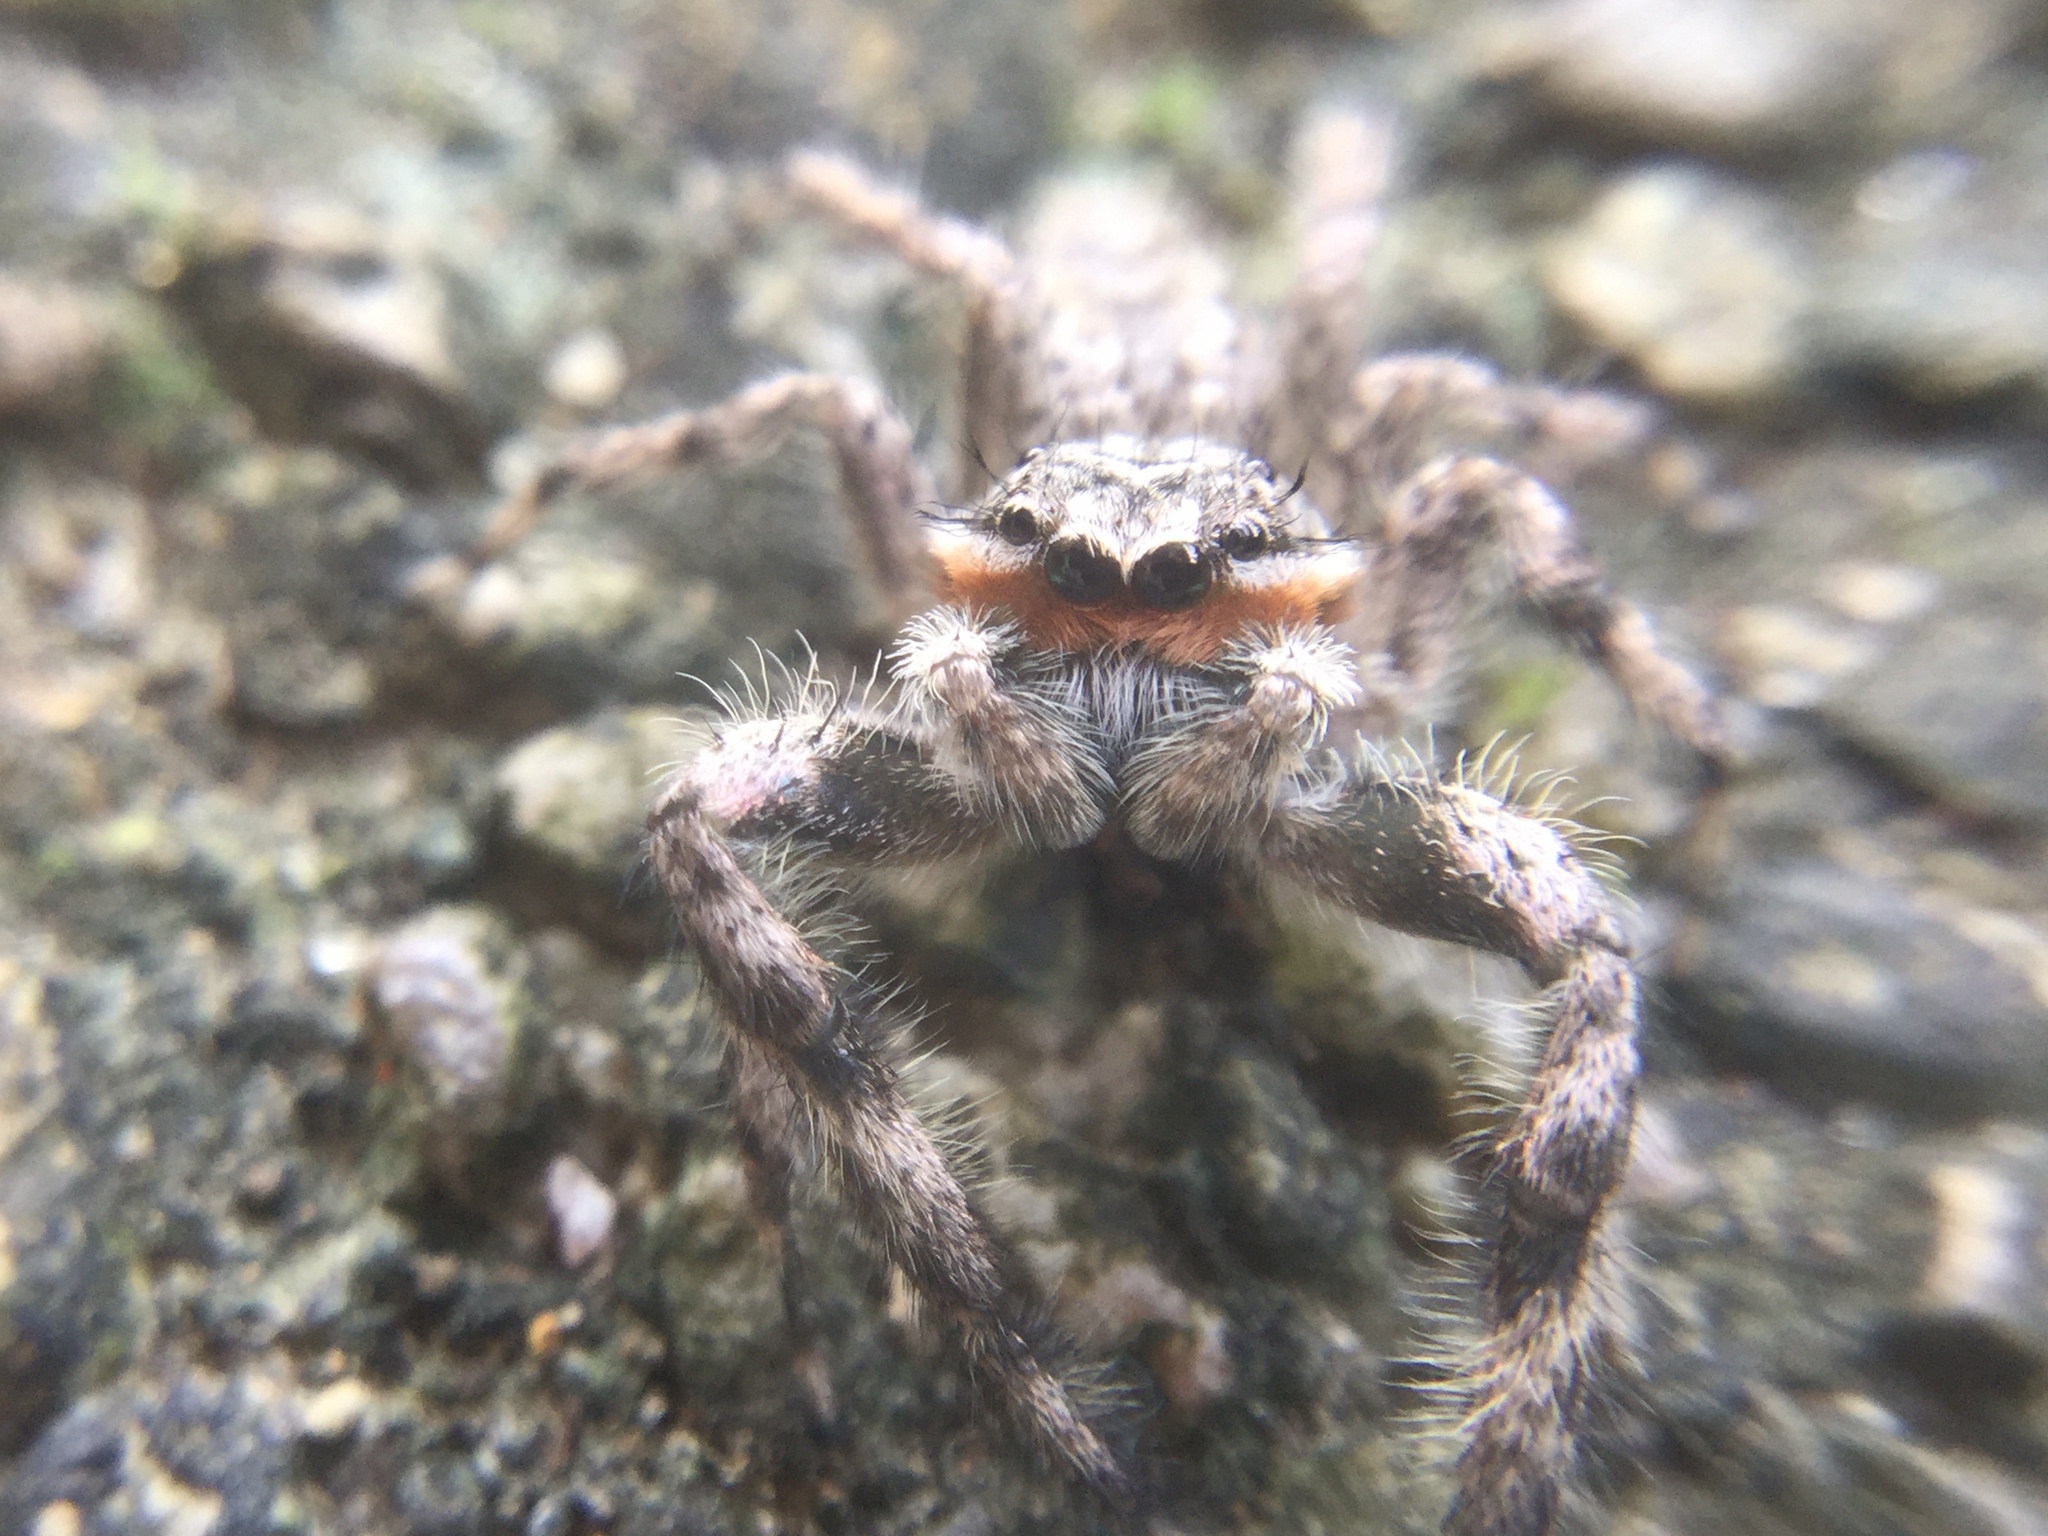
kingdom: Animalia
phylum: Arthropoda
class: Arachnida
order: Araneae
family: Salticidae
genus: Platycryptus
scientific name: Platycryptus undatus
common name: Tan jumping spider
